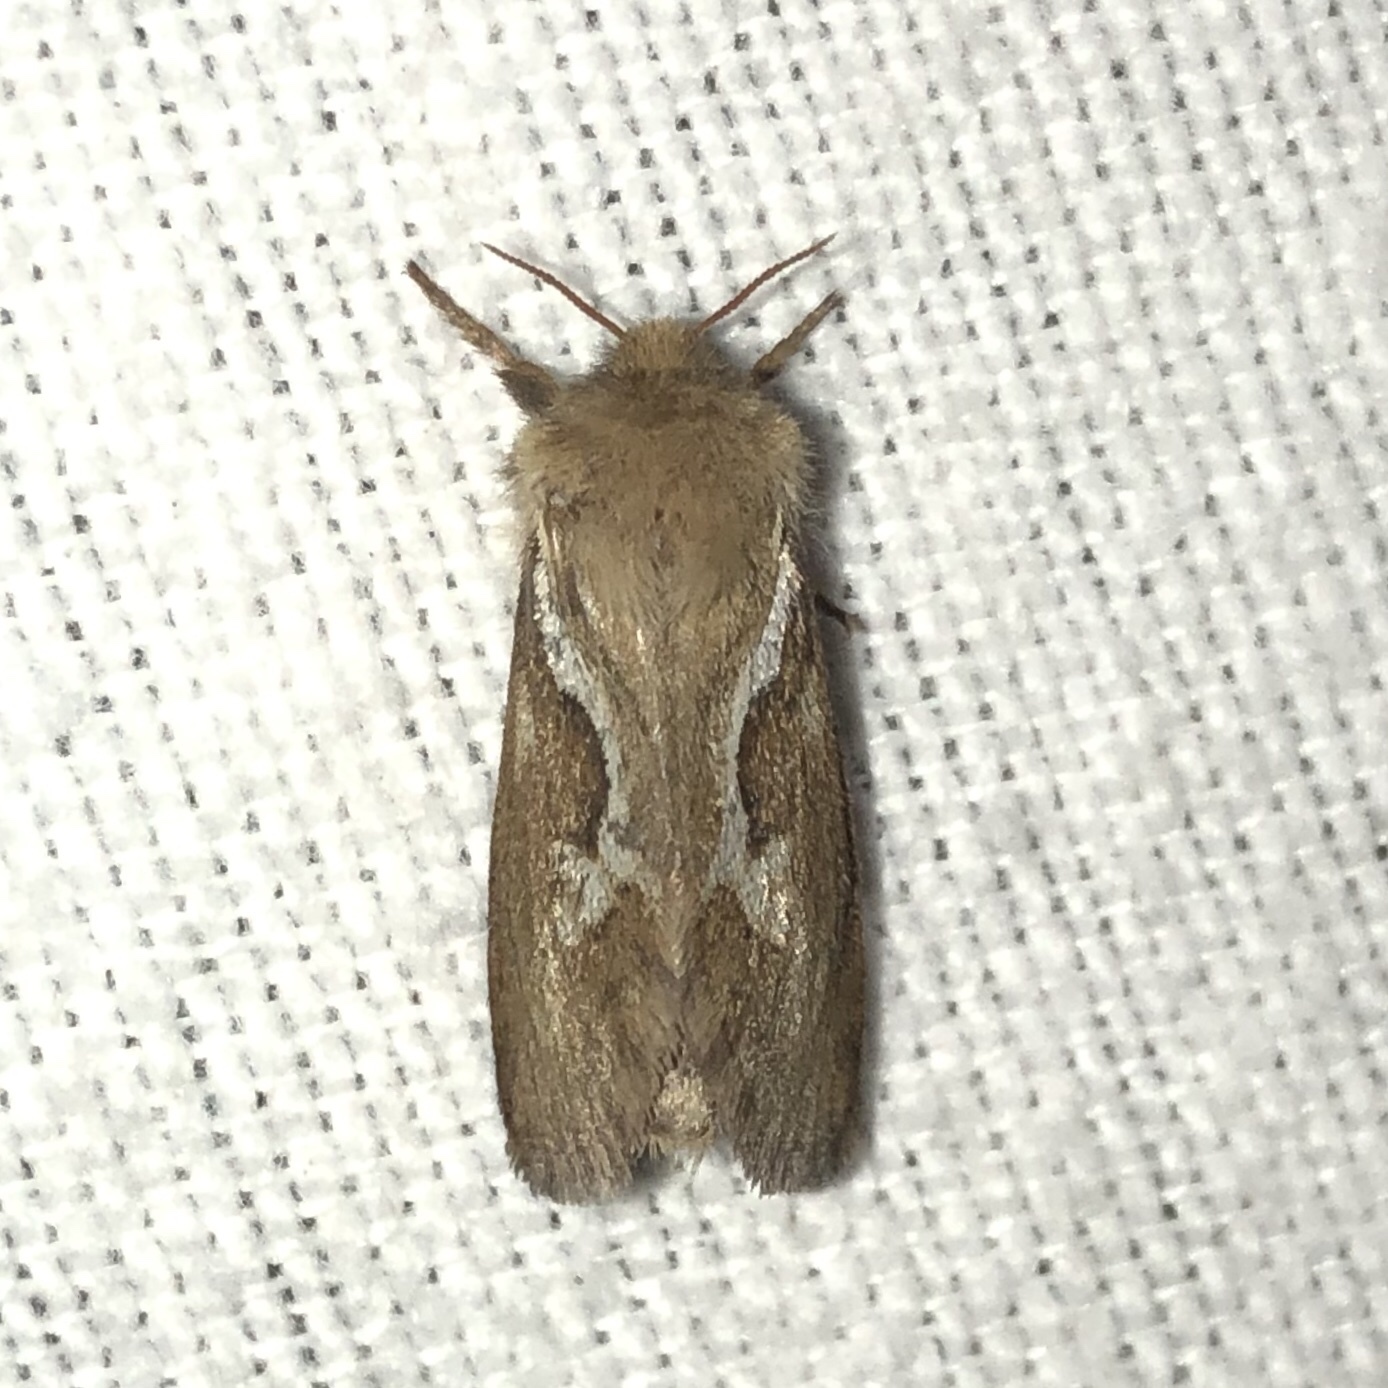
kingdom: Animalia
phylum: Arthropoda
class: Insecta
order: Lepidoptera
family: Hepialidae
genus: Korscheltellus
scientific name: Korscheltellus lupulina
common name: Common swift
